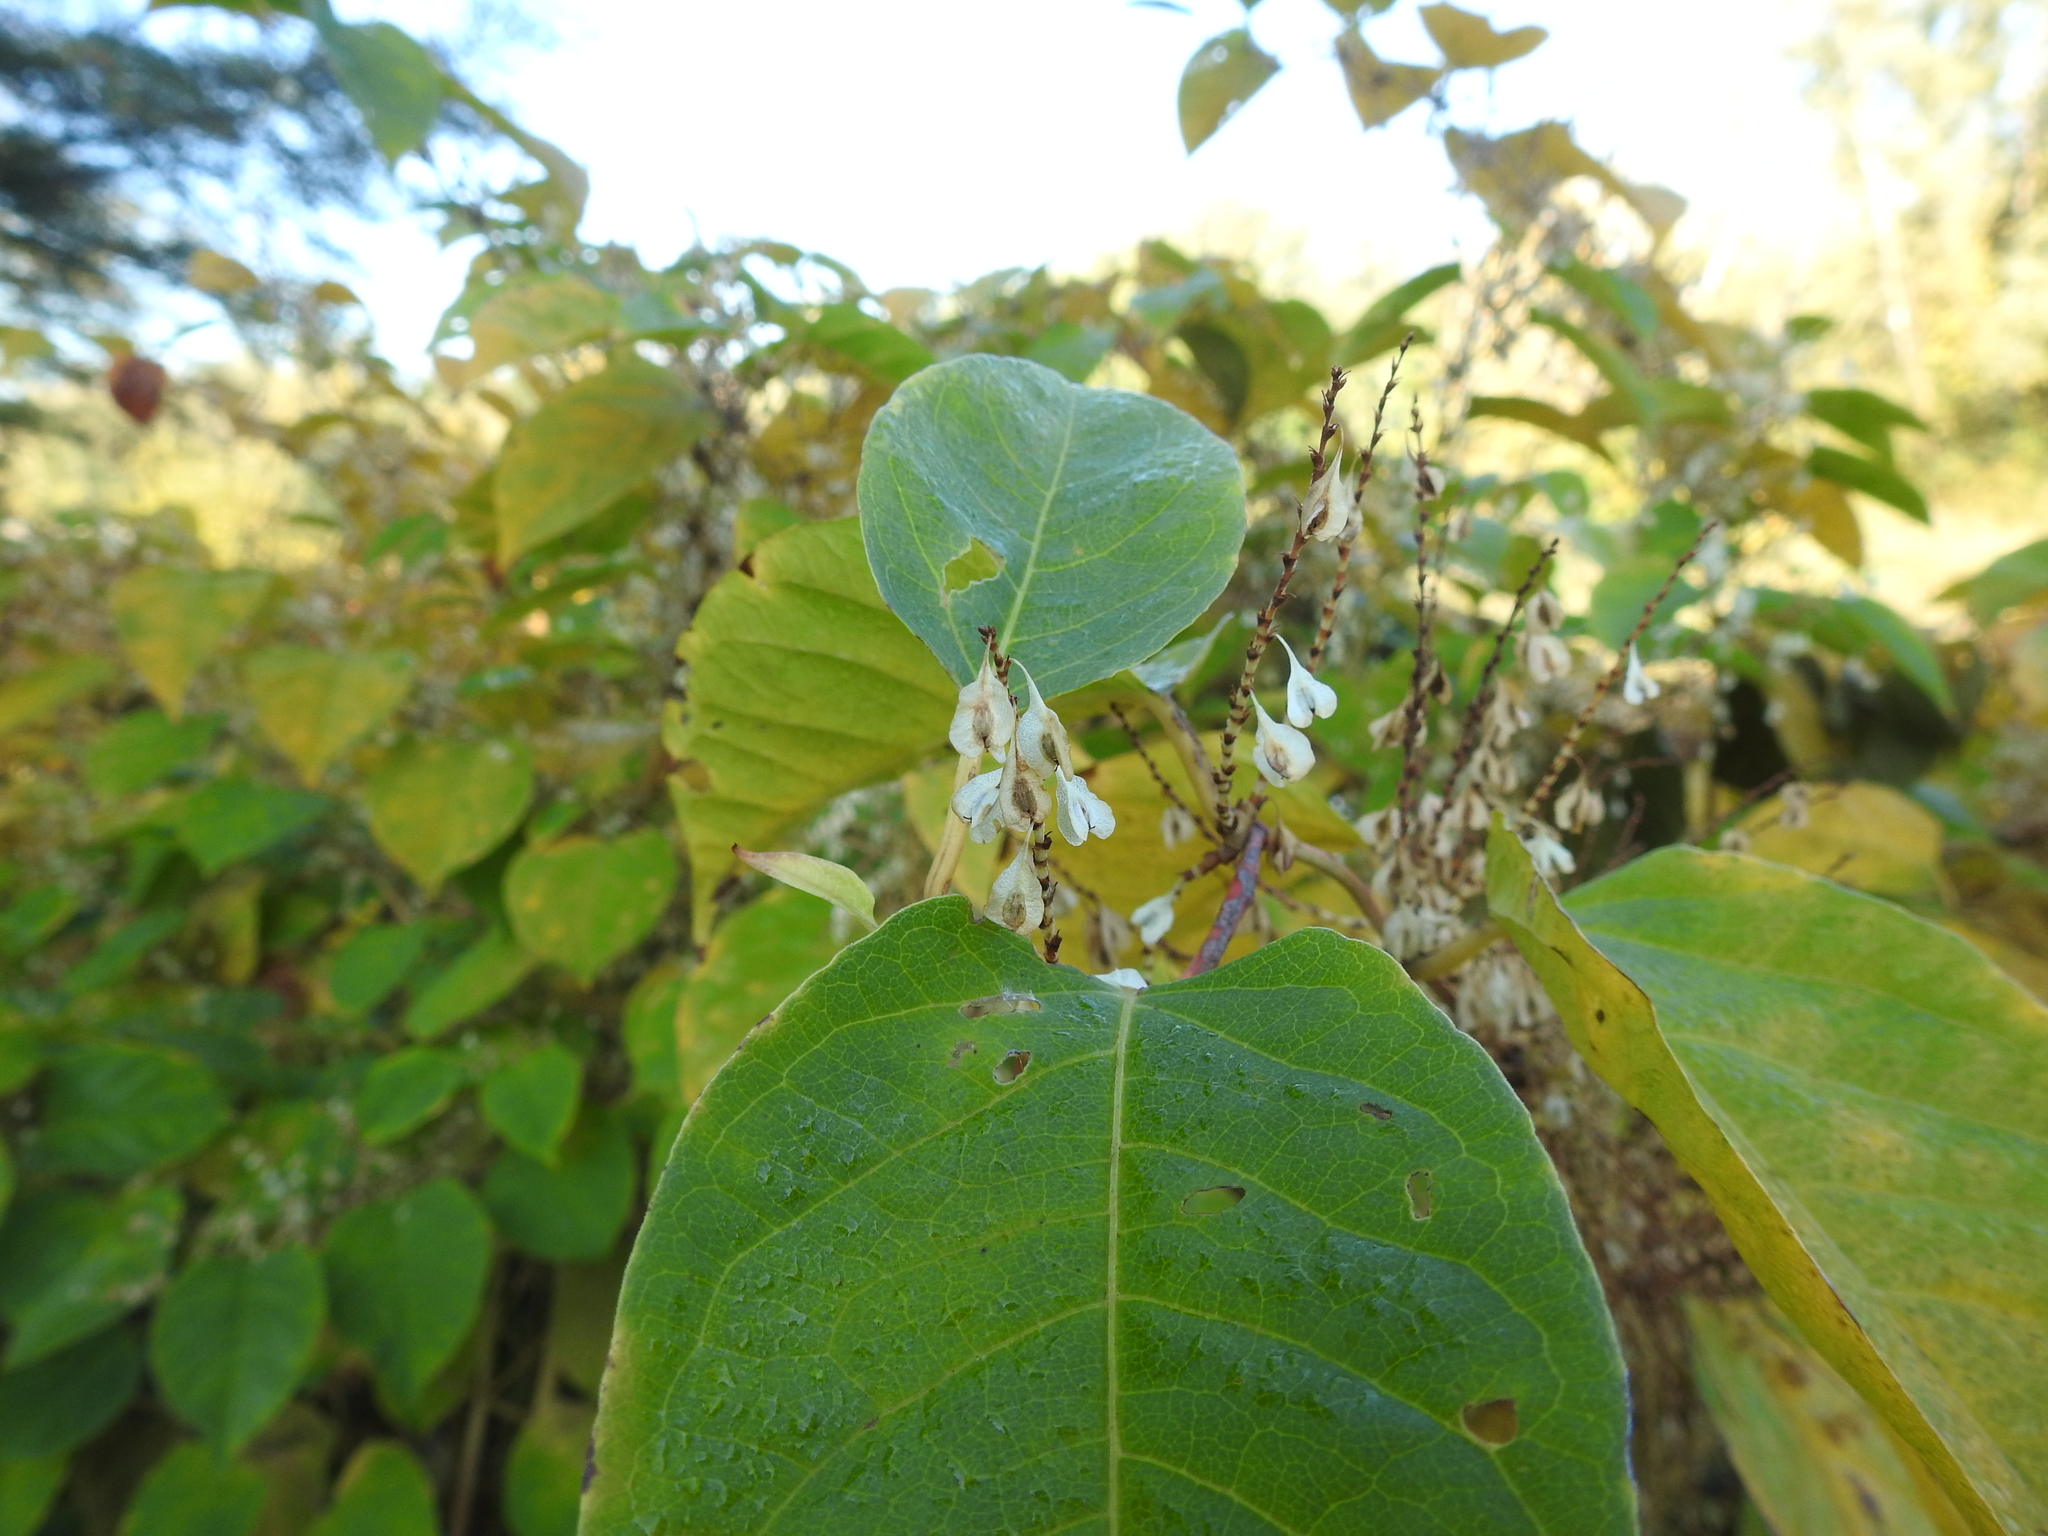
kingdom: Plantae
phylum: Tracheophyta
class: Magnoliopsida
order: Caryophyllales
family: Polygonaceae
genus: Reynoutria
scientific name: Reynoutria japonica
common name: Japanese knotweed
